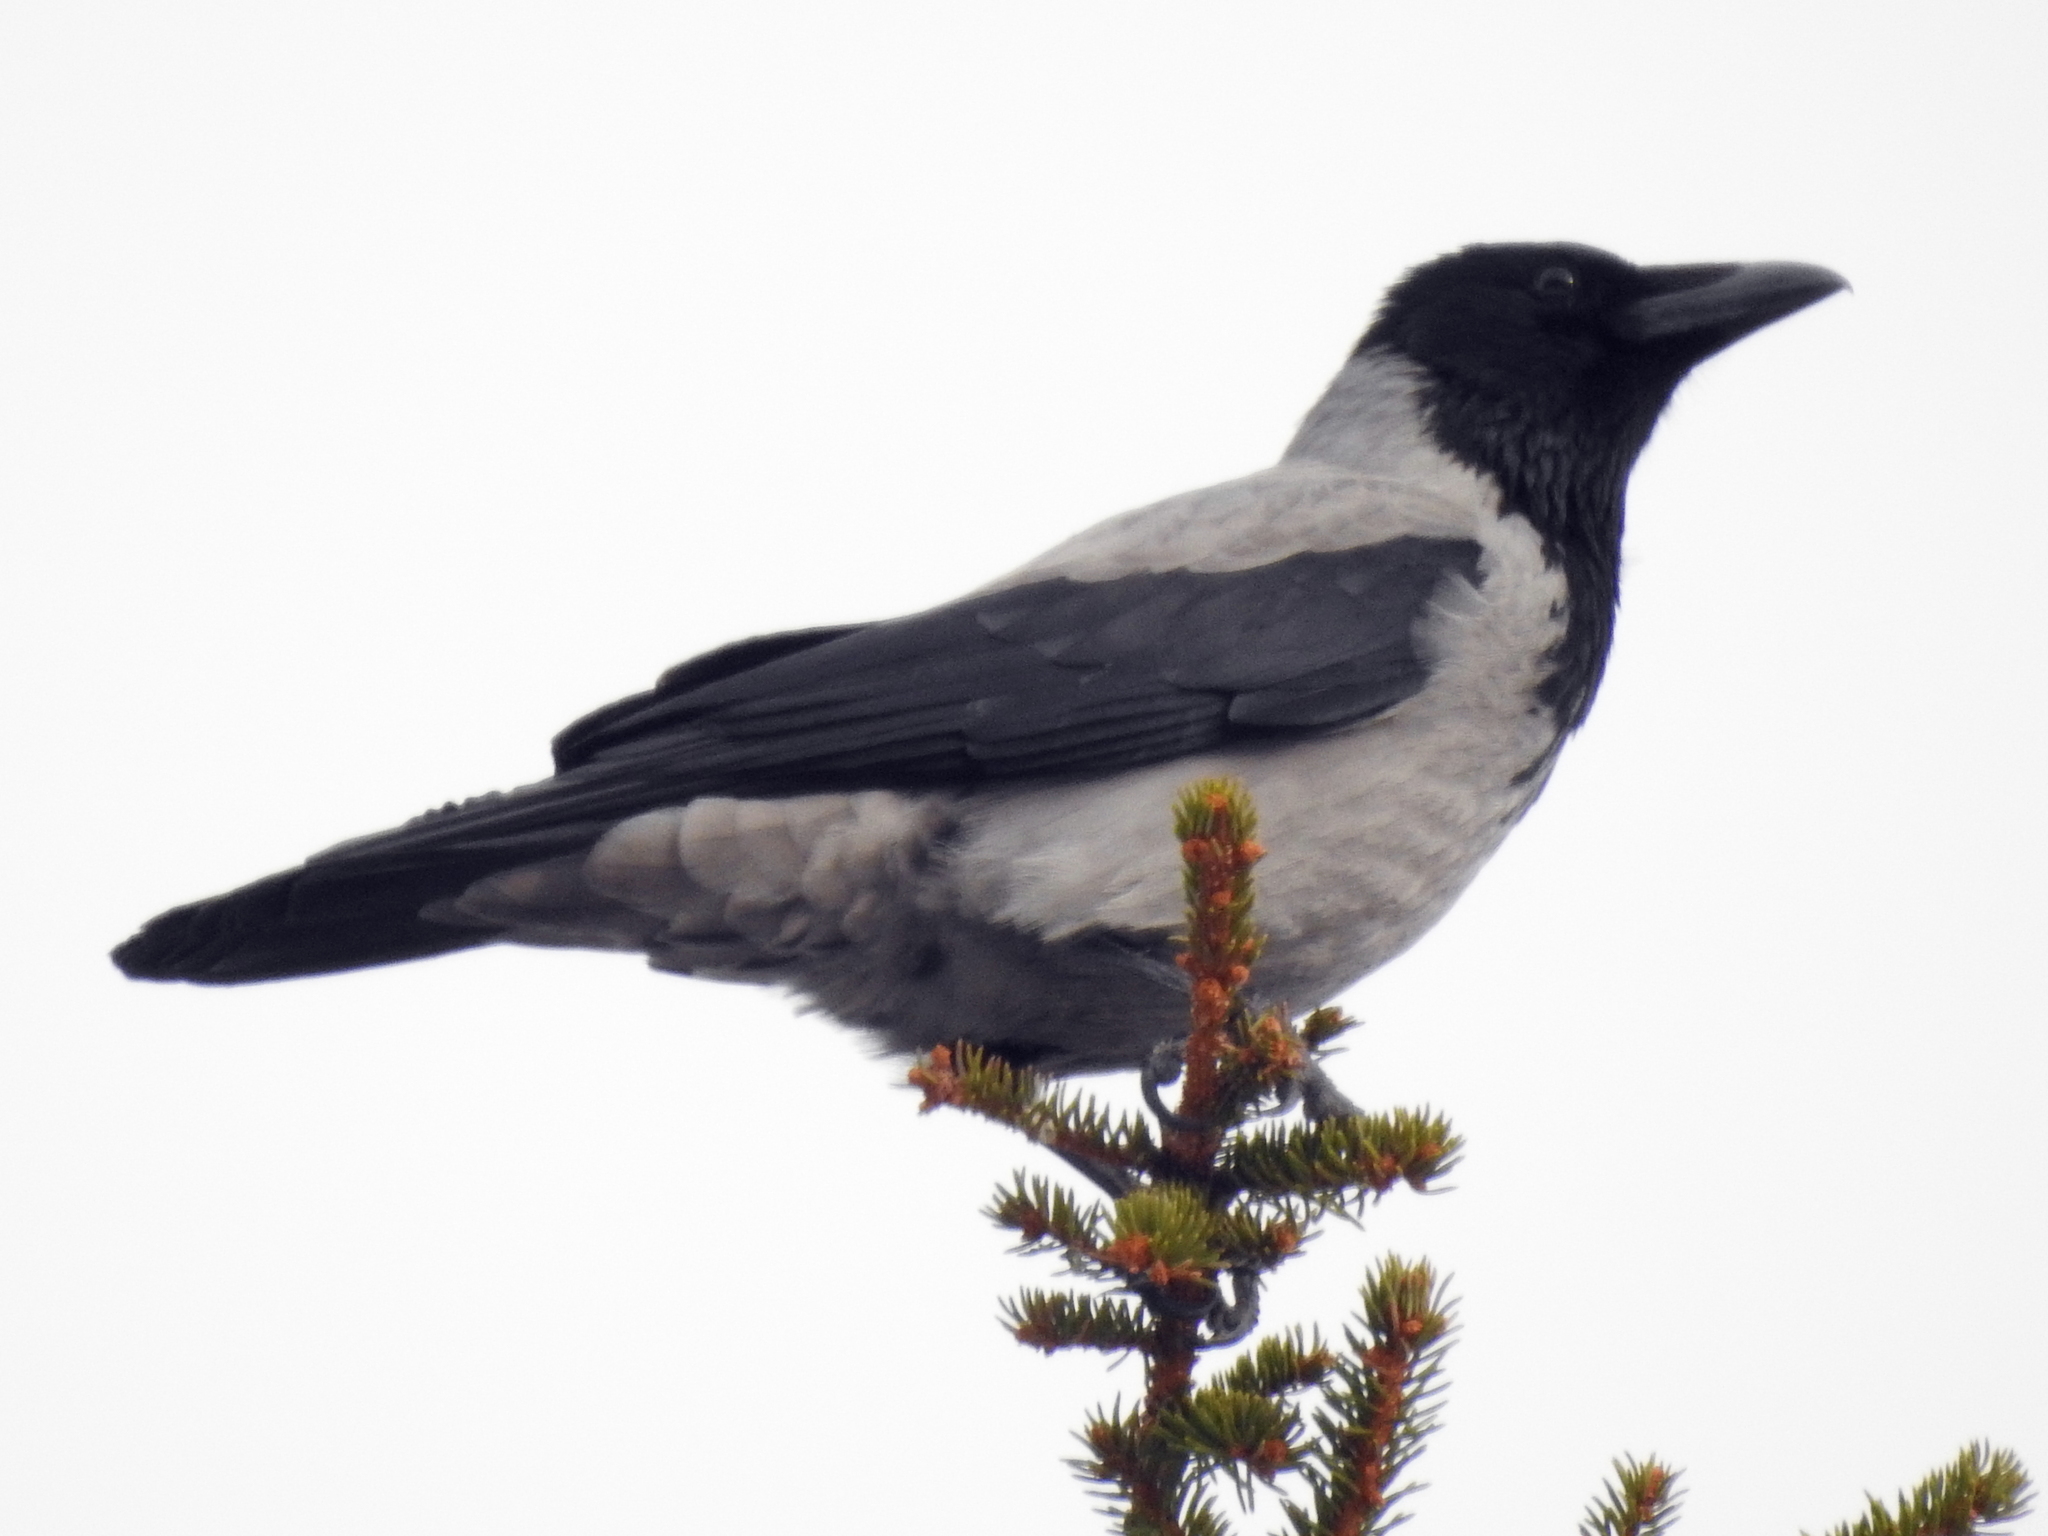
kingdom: Animalia
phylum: Chordata
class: Aves
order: Passeriformes
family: Corvidae
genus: Corvus
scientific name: Corvus cornix
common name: Hooded crow
